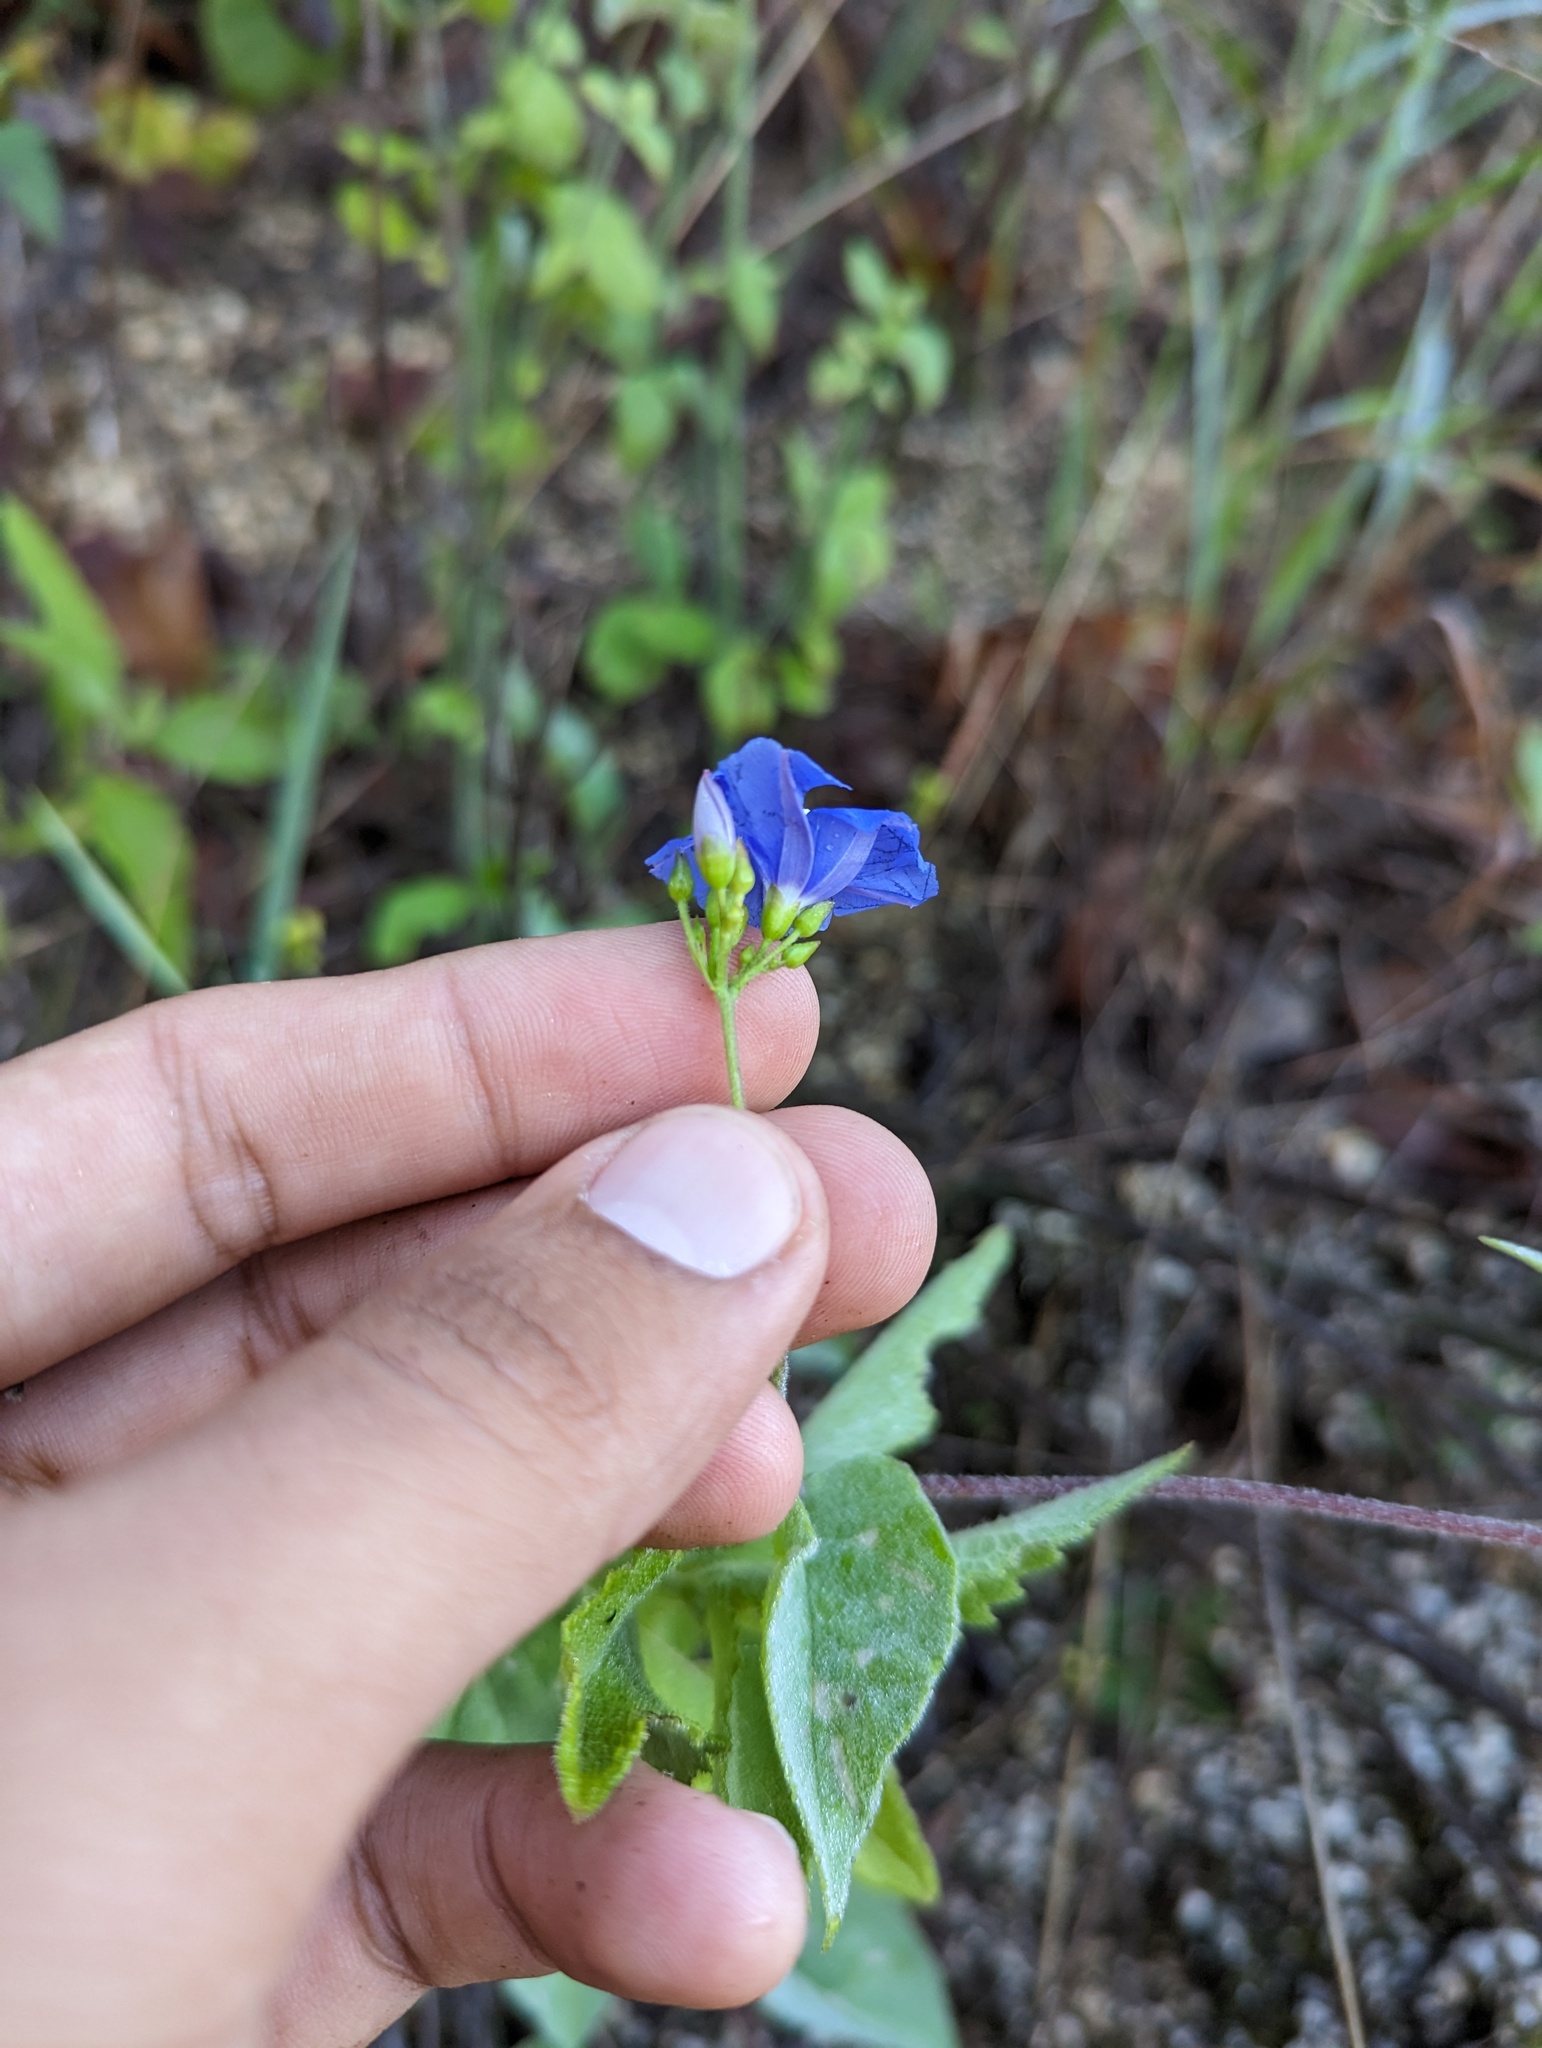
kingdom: Plantae
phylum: Tracheophyta
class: Magnoliopsida
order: Solanales
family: Convolvulaceae
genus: Jacquemontia
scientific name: Jacquemontia pentanthos
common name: Skyblue clustervine
